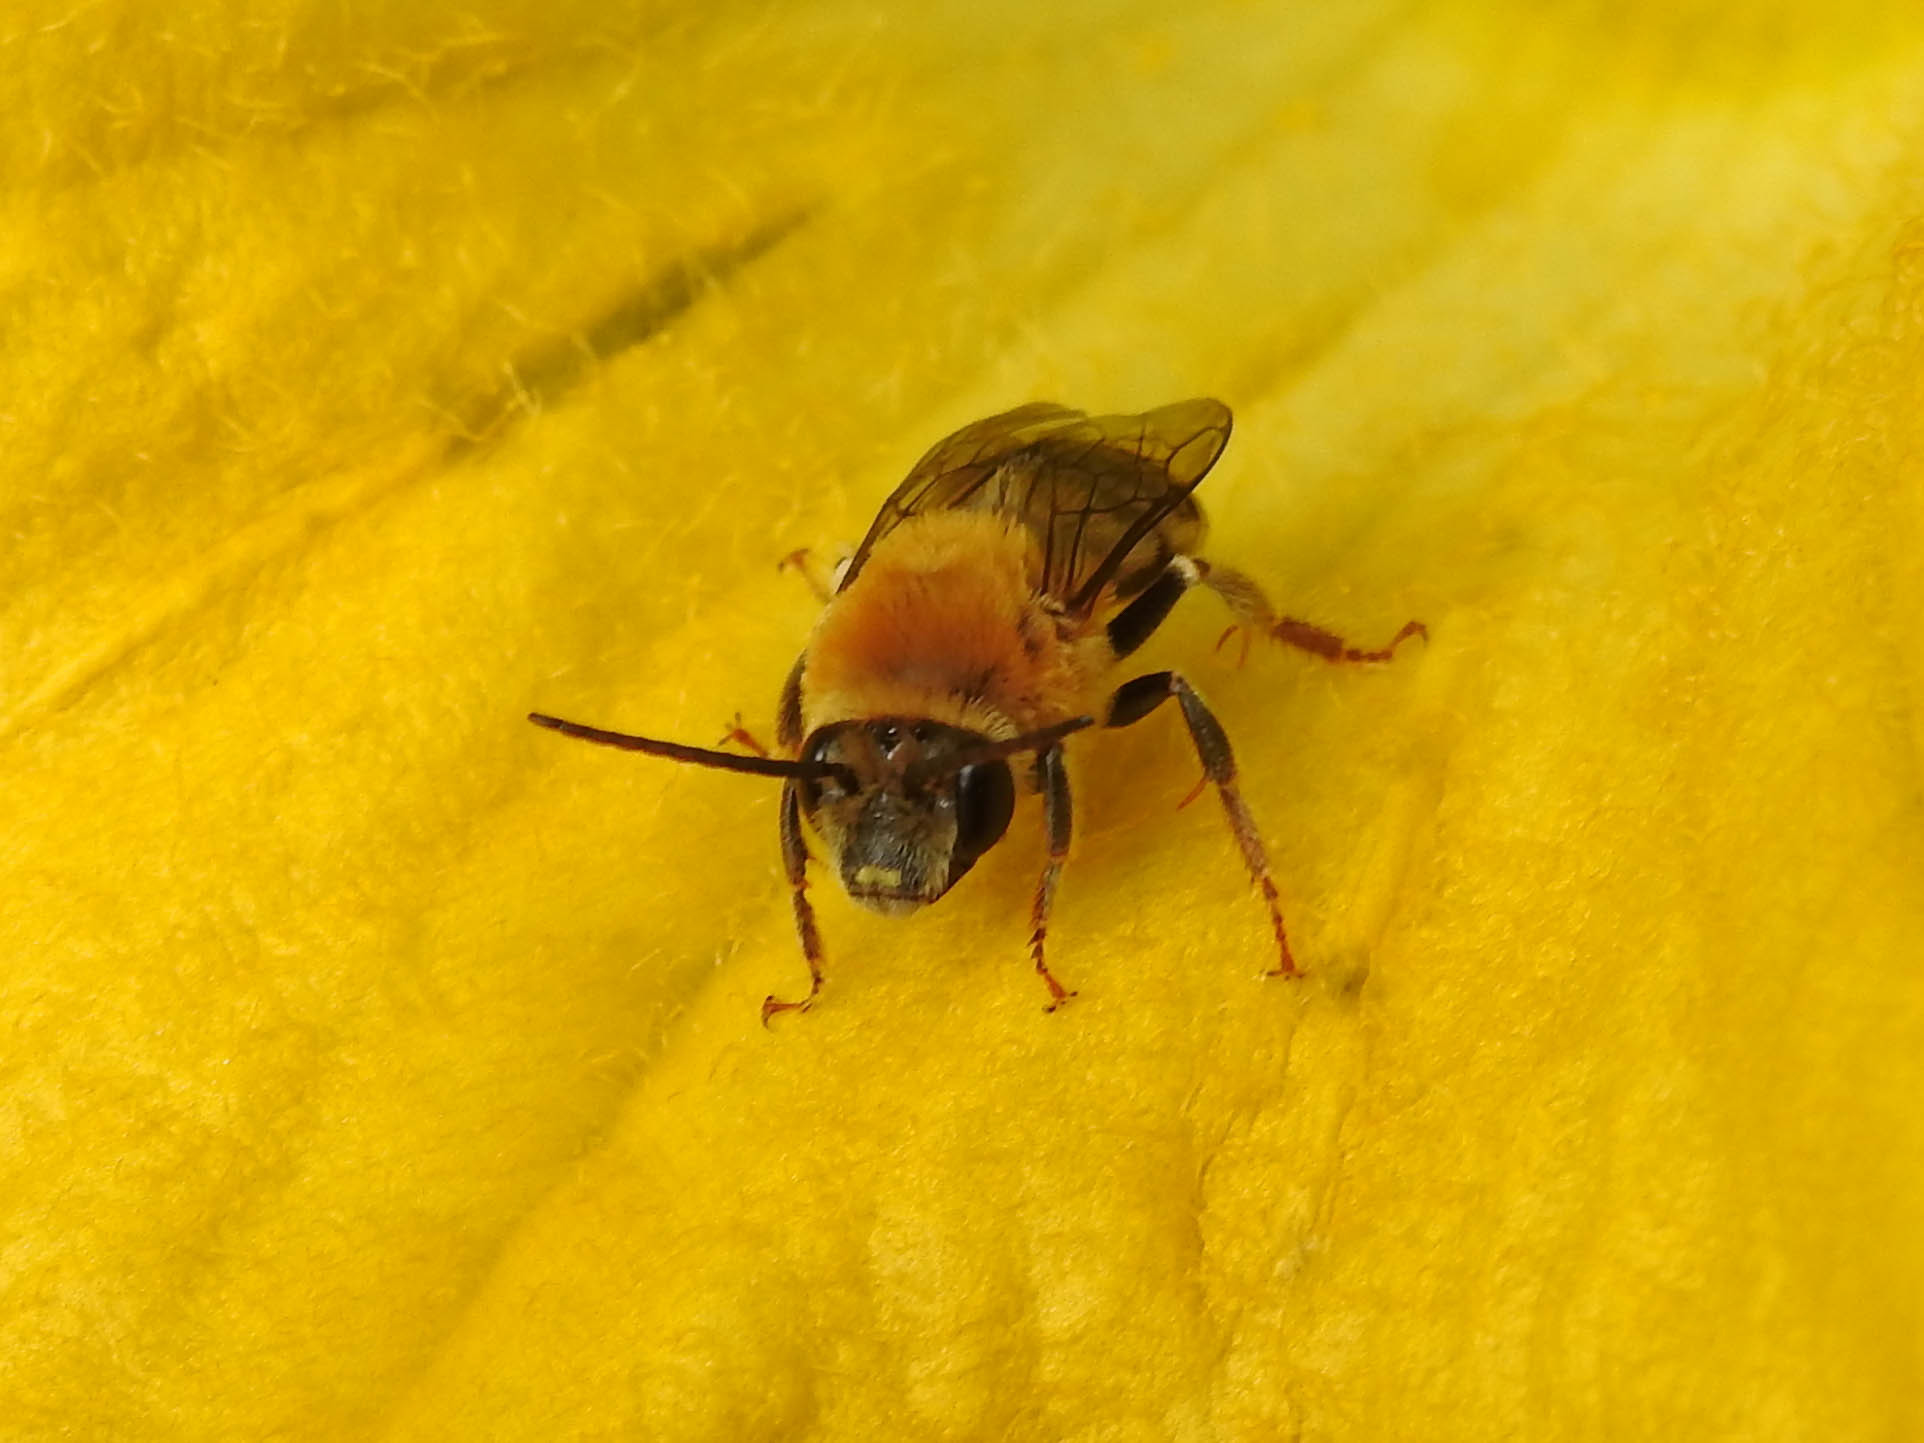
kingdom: Animalia
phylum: Arthropoda
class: Insecta
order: Hymenoptera
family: Apidae
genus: Peponapis
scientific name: Peponapis pruinosa
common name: Pruinose squash bee
